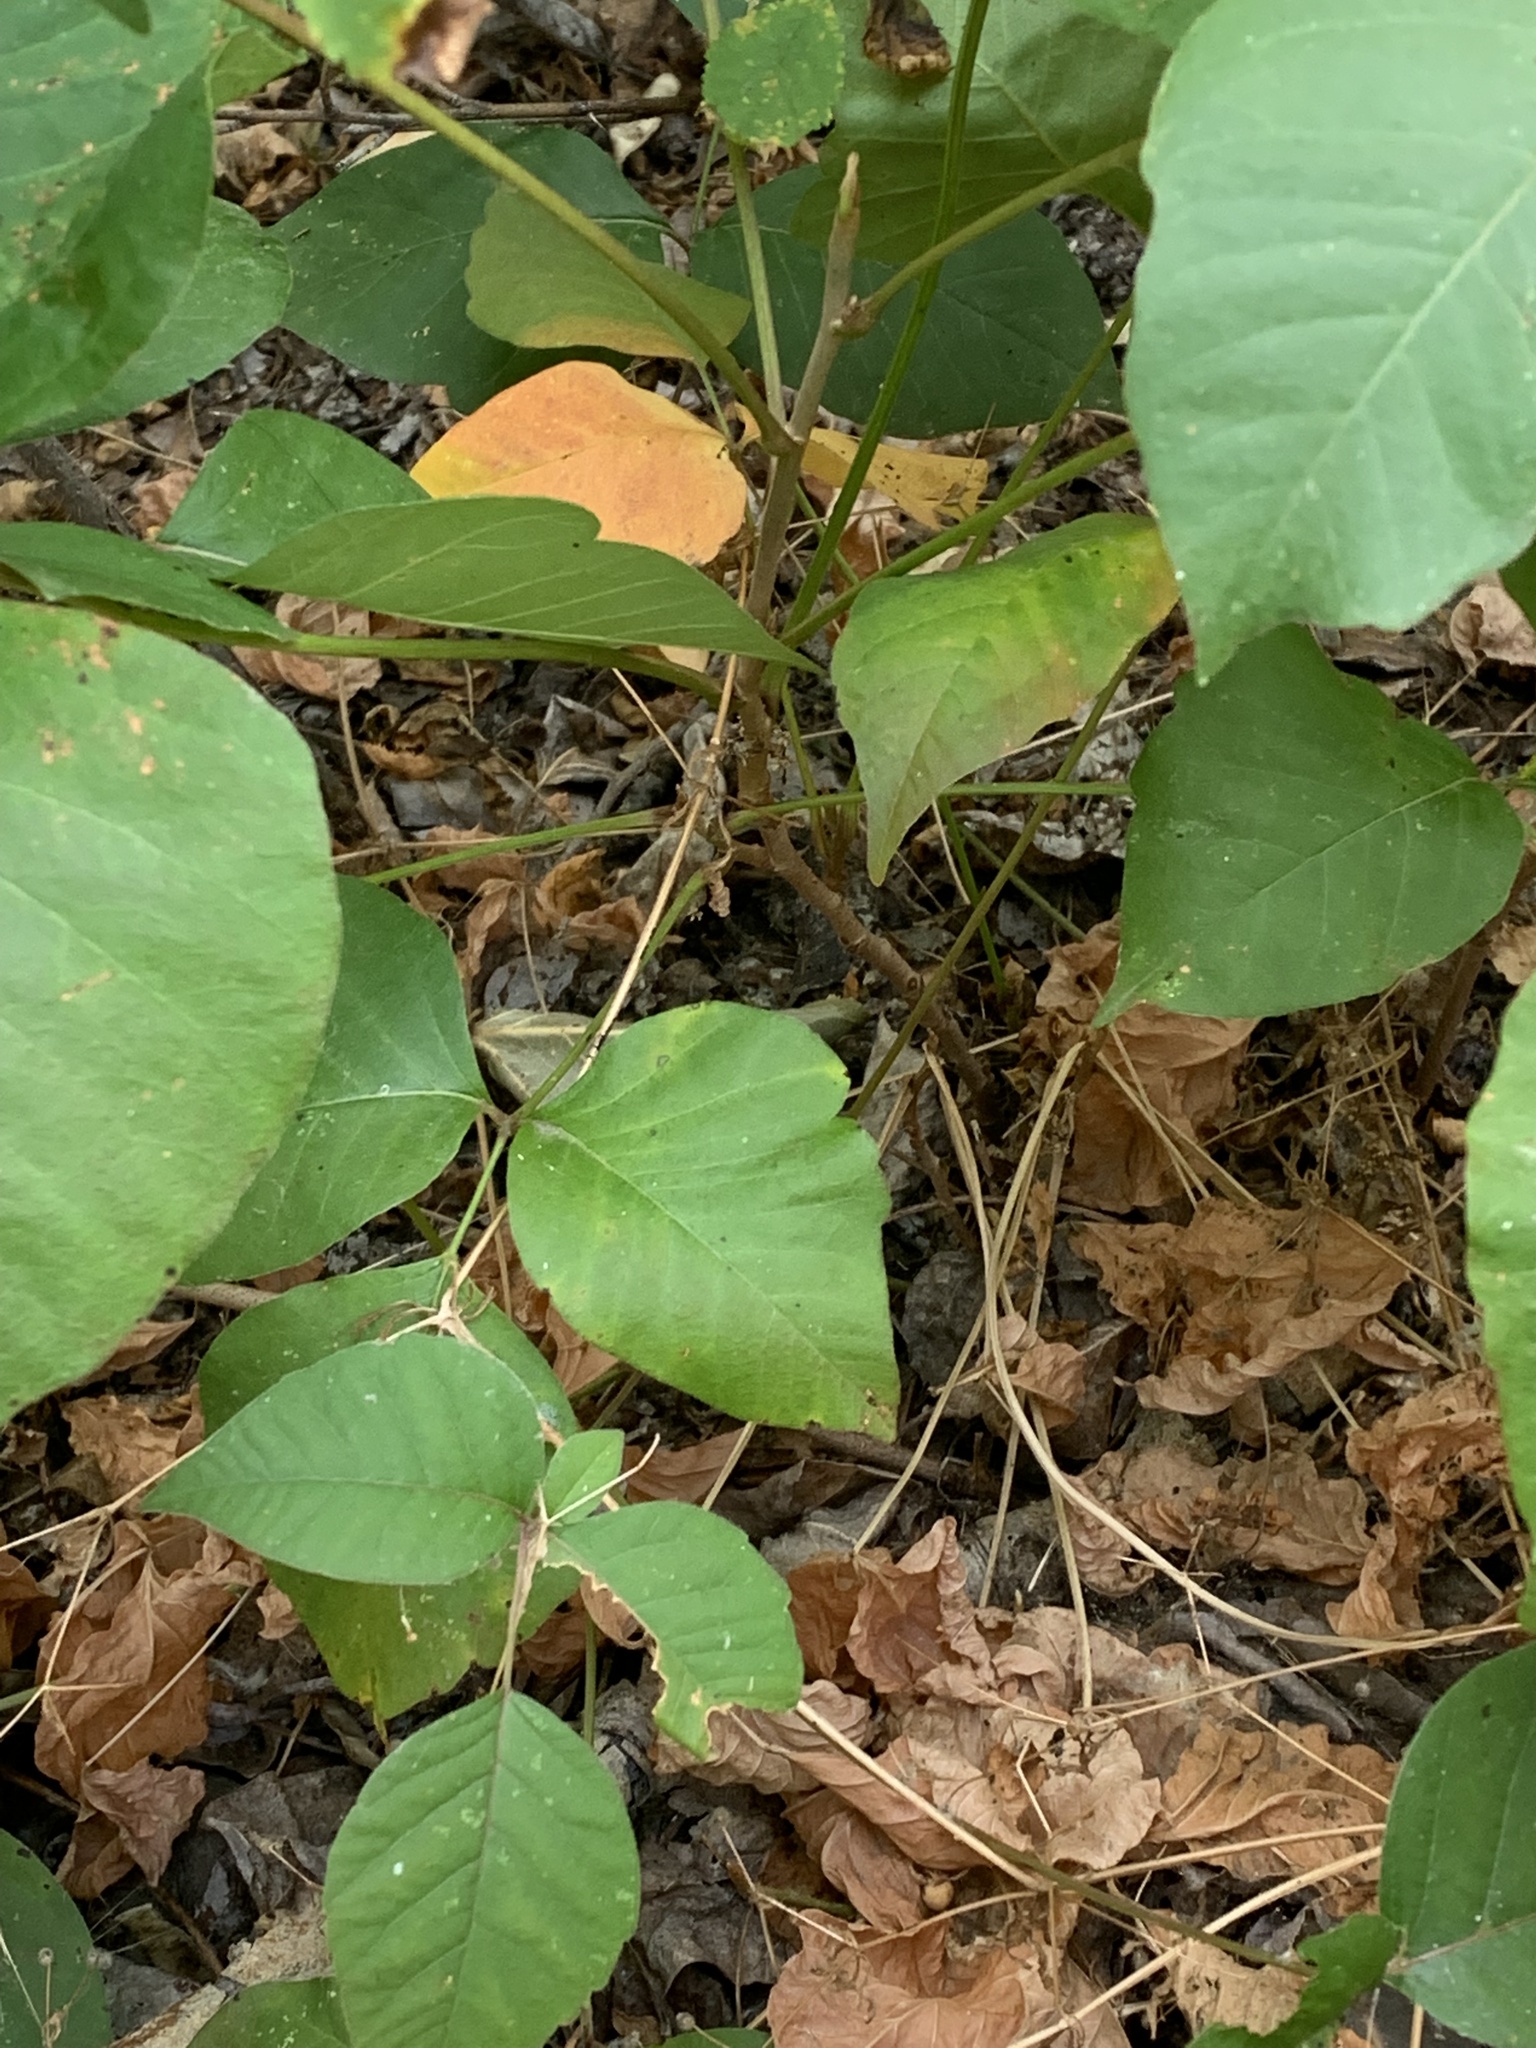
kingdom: Plantae
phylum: Tracheophyta
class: Magnoliopsida
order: Sapindales
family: Anacardiaceae
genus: Toxicodendron
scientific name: Toxicodendron rydbergii
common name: Rydberg's poison-ivy
